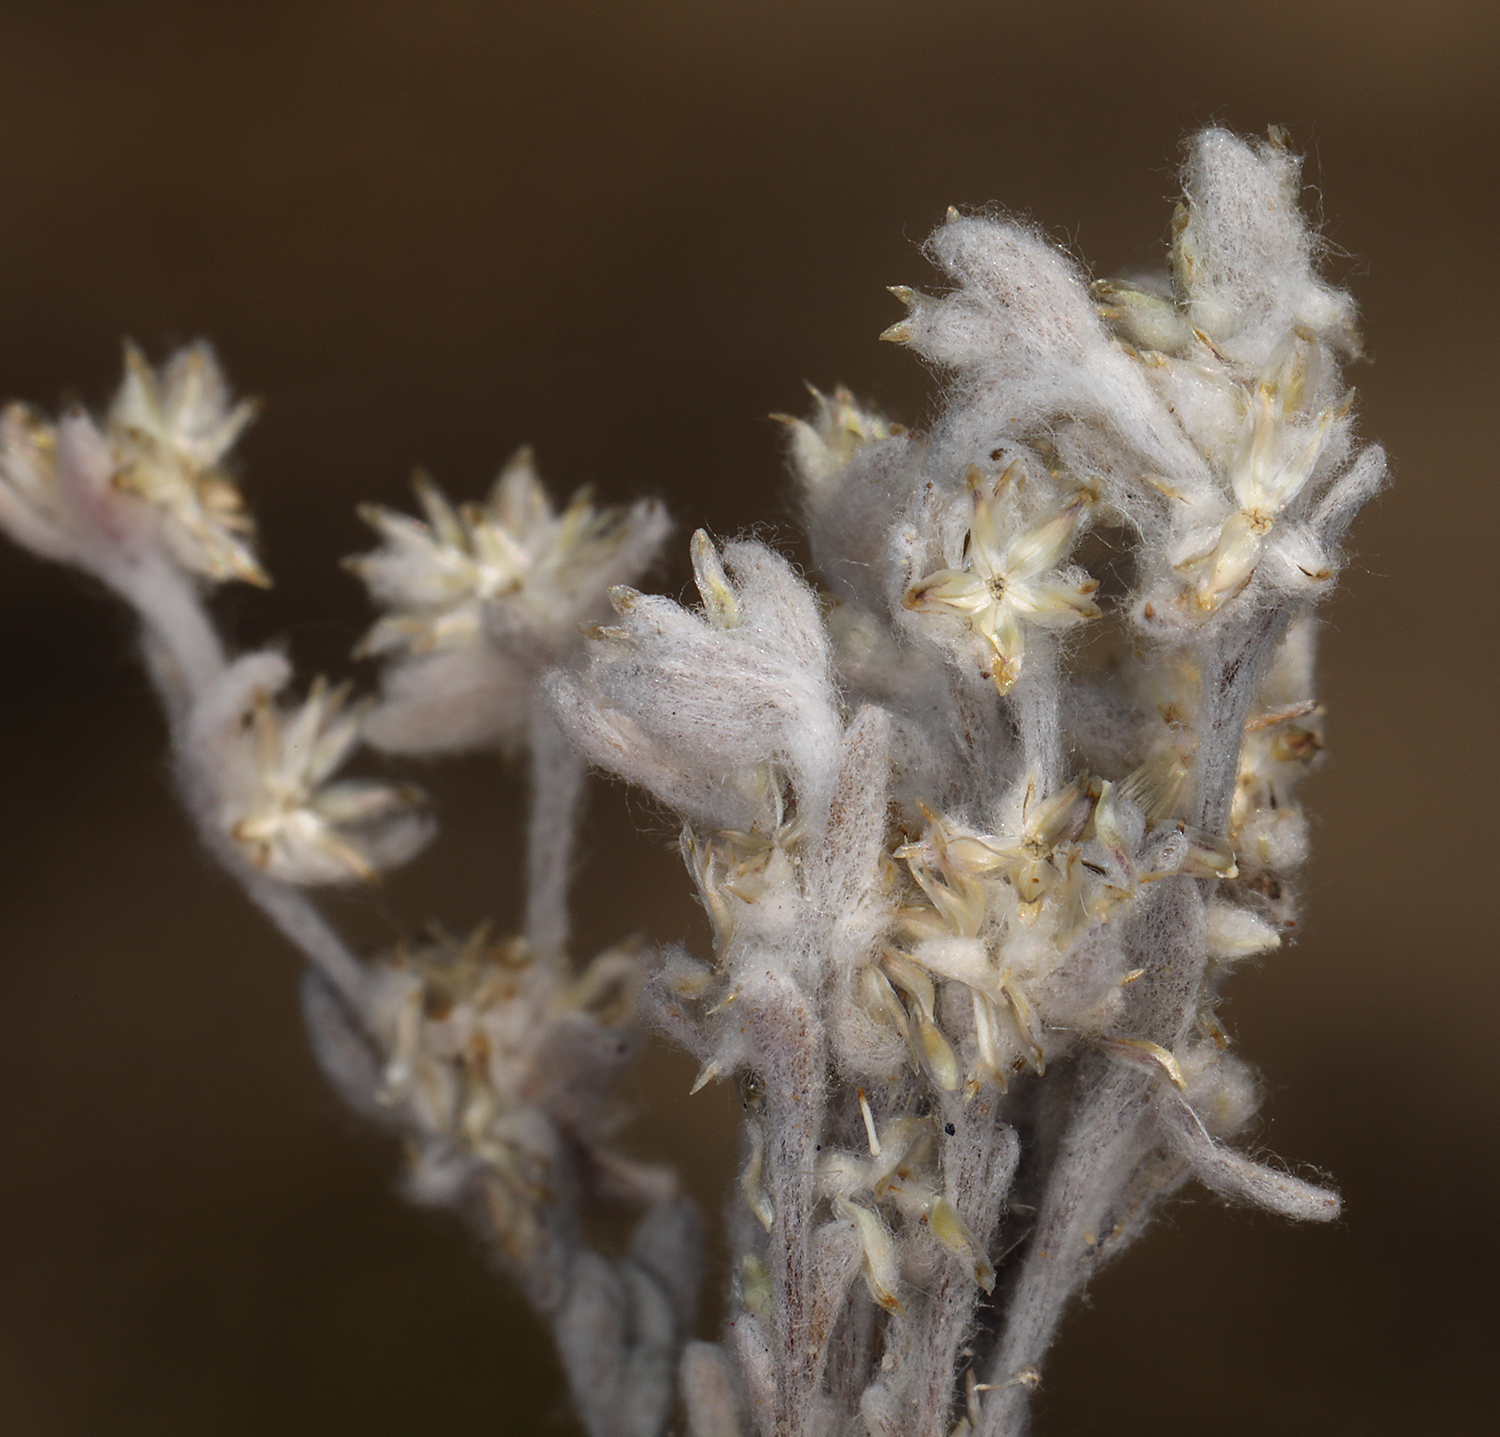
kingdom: Plantae
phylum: Tracheophyta
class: Magnoliopsida
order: Asterales
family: Asteraceae
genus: Logfia
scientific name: Logfia depressa
